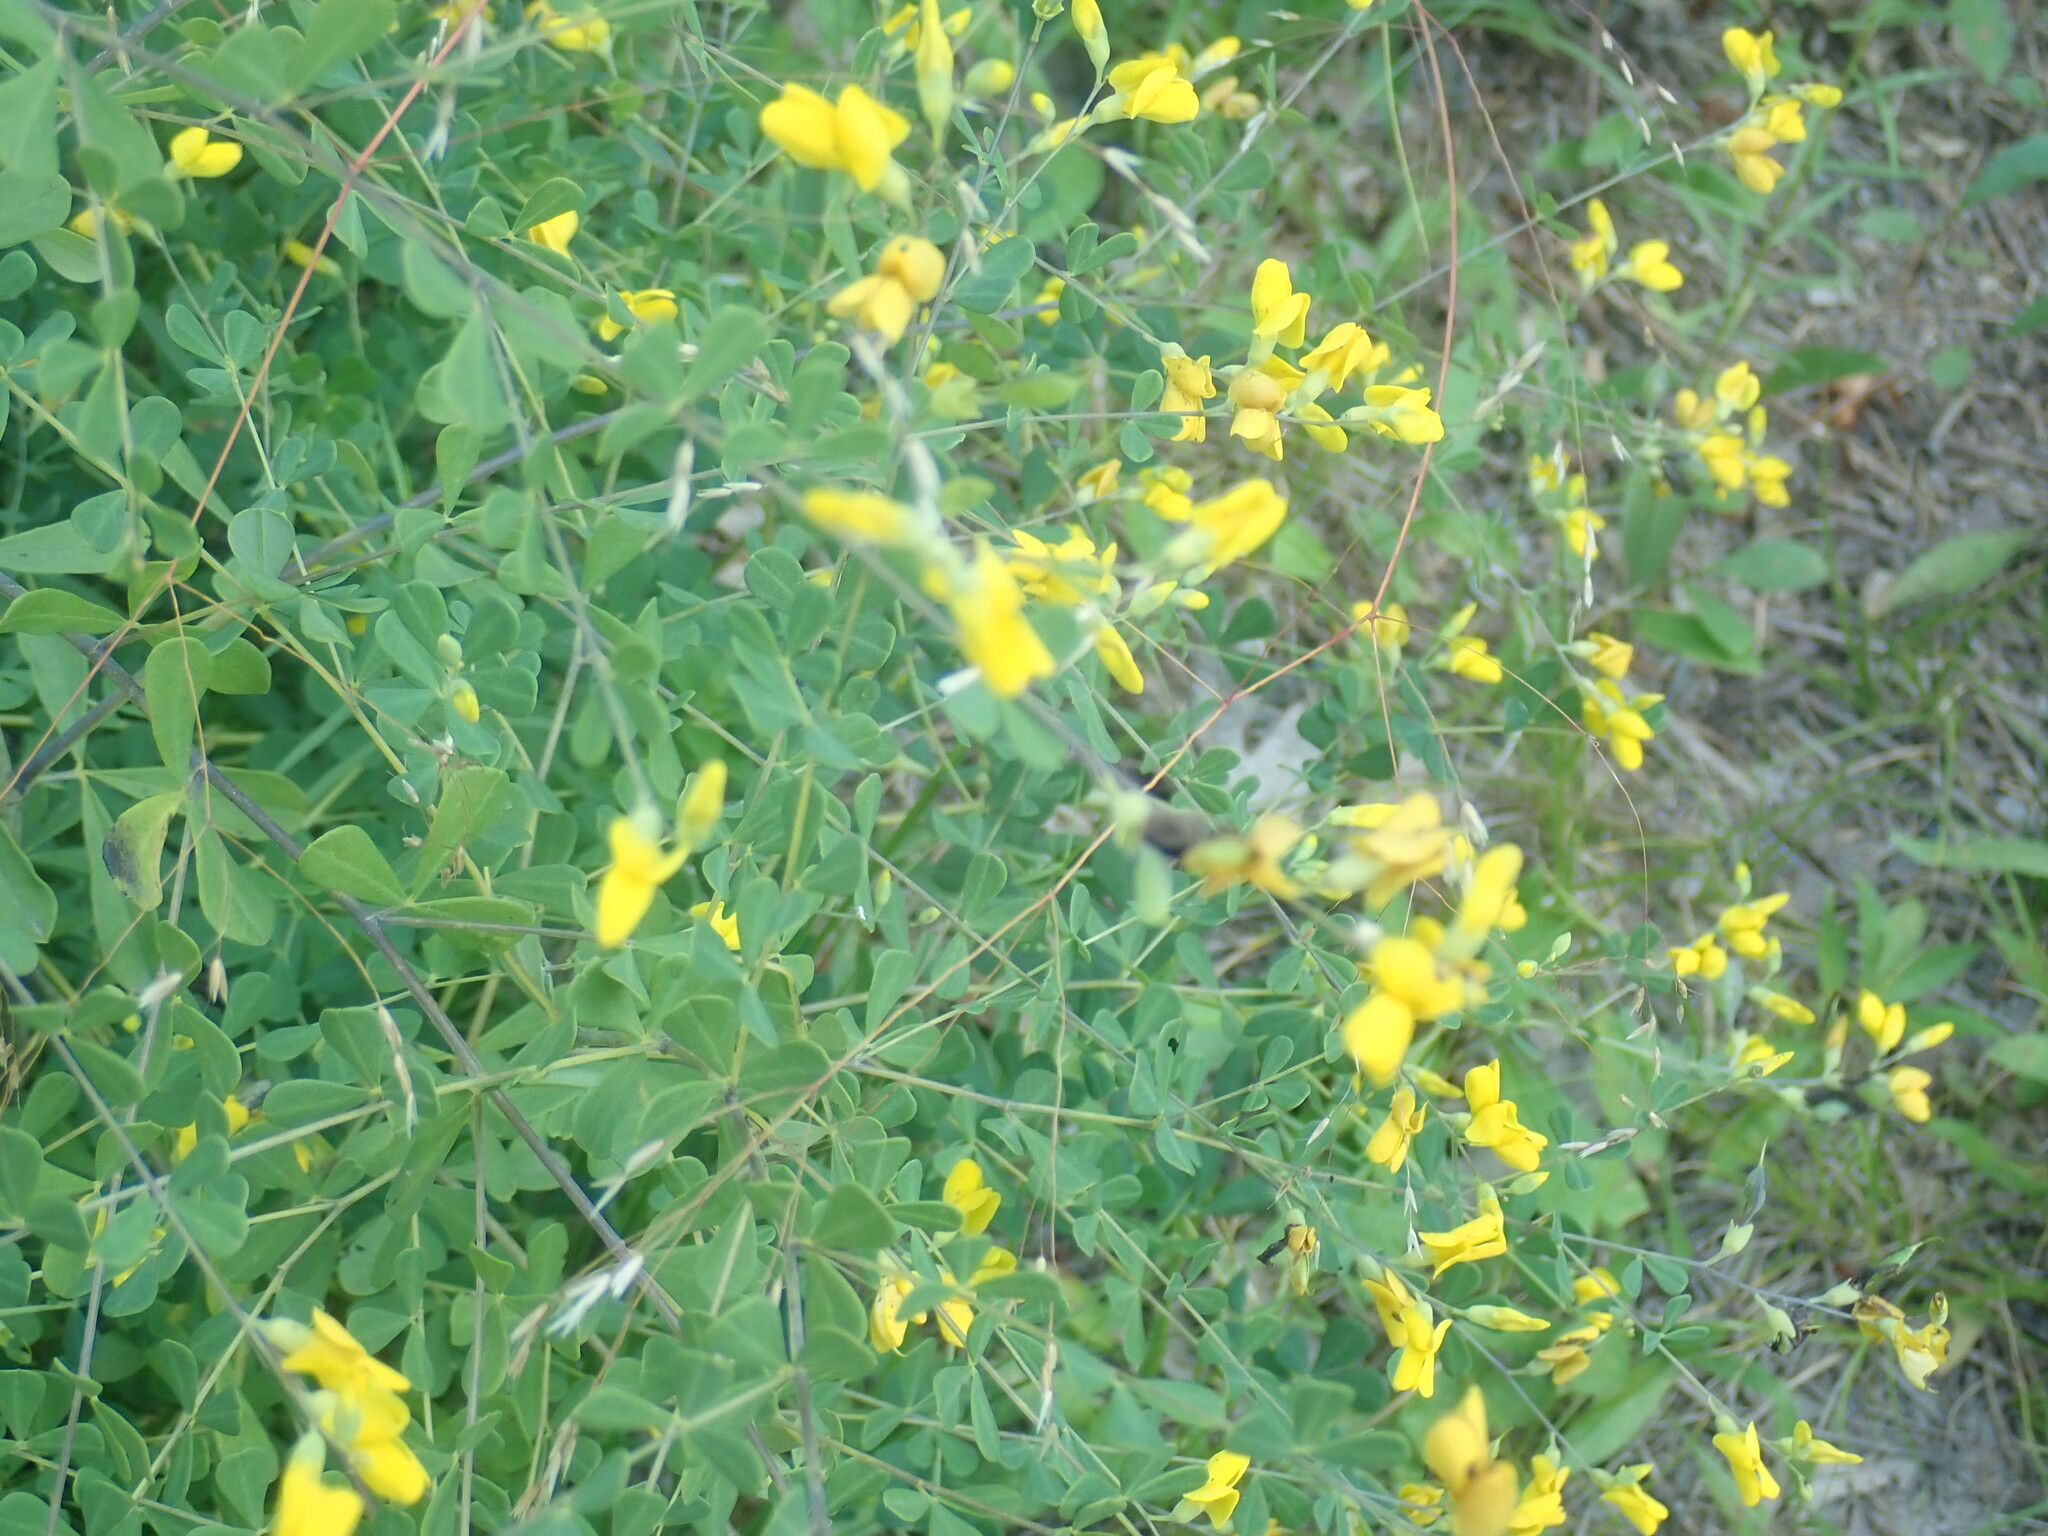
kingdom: Plantae
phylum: Tracheophyta
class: Magnoliopsida
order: Fabales
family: Fabaceae
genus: Baptisia
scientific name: Baptisia tinctoria
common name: Wild indigo
